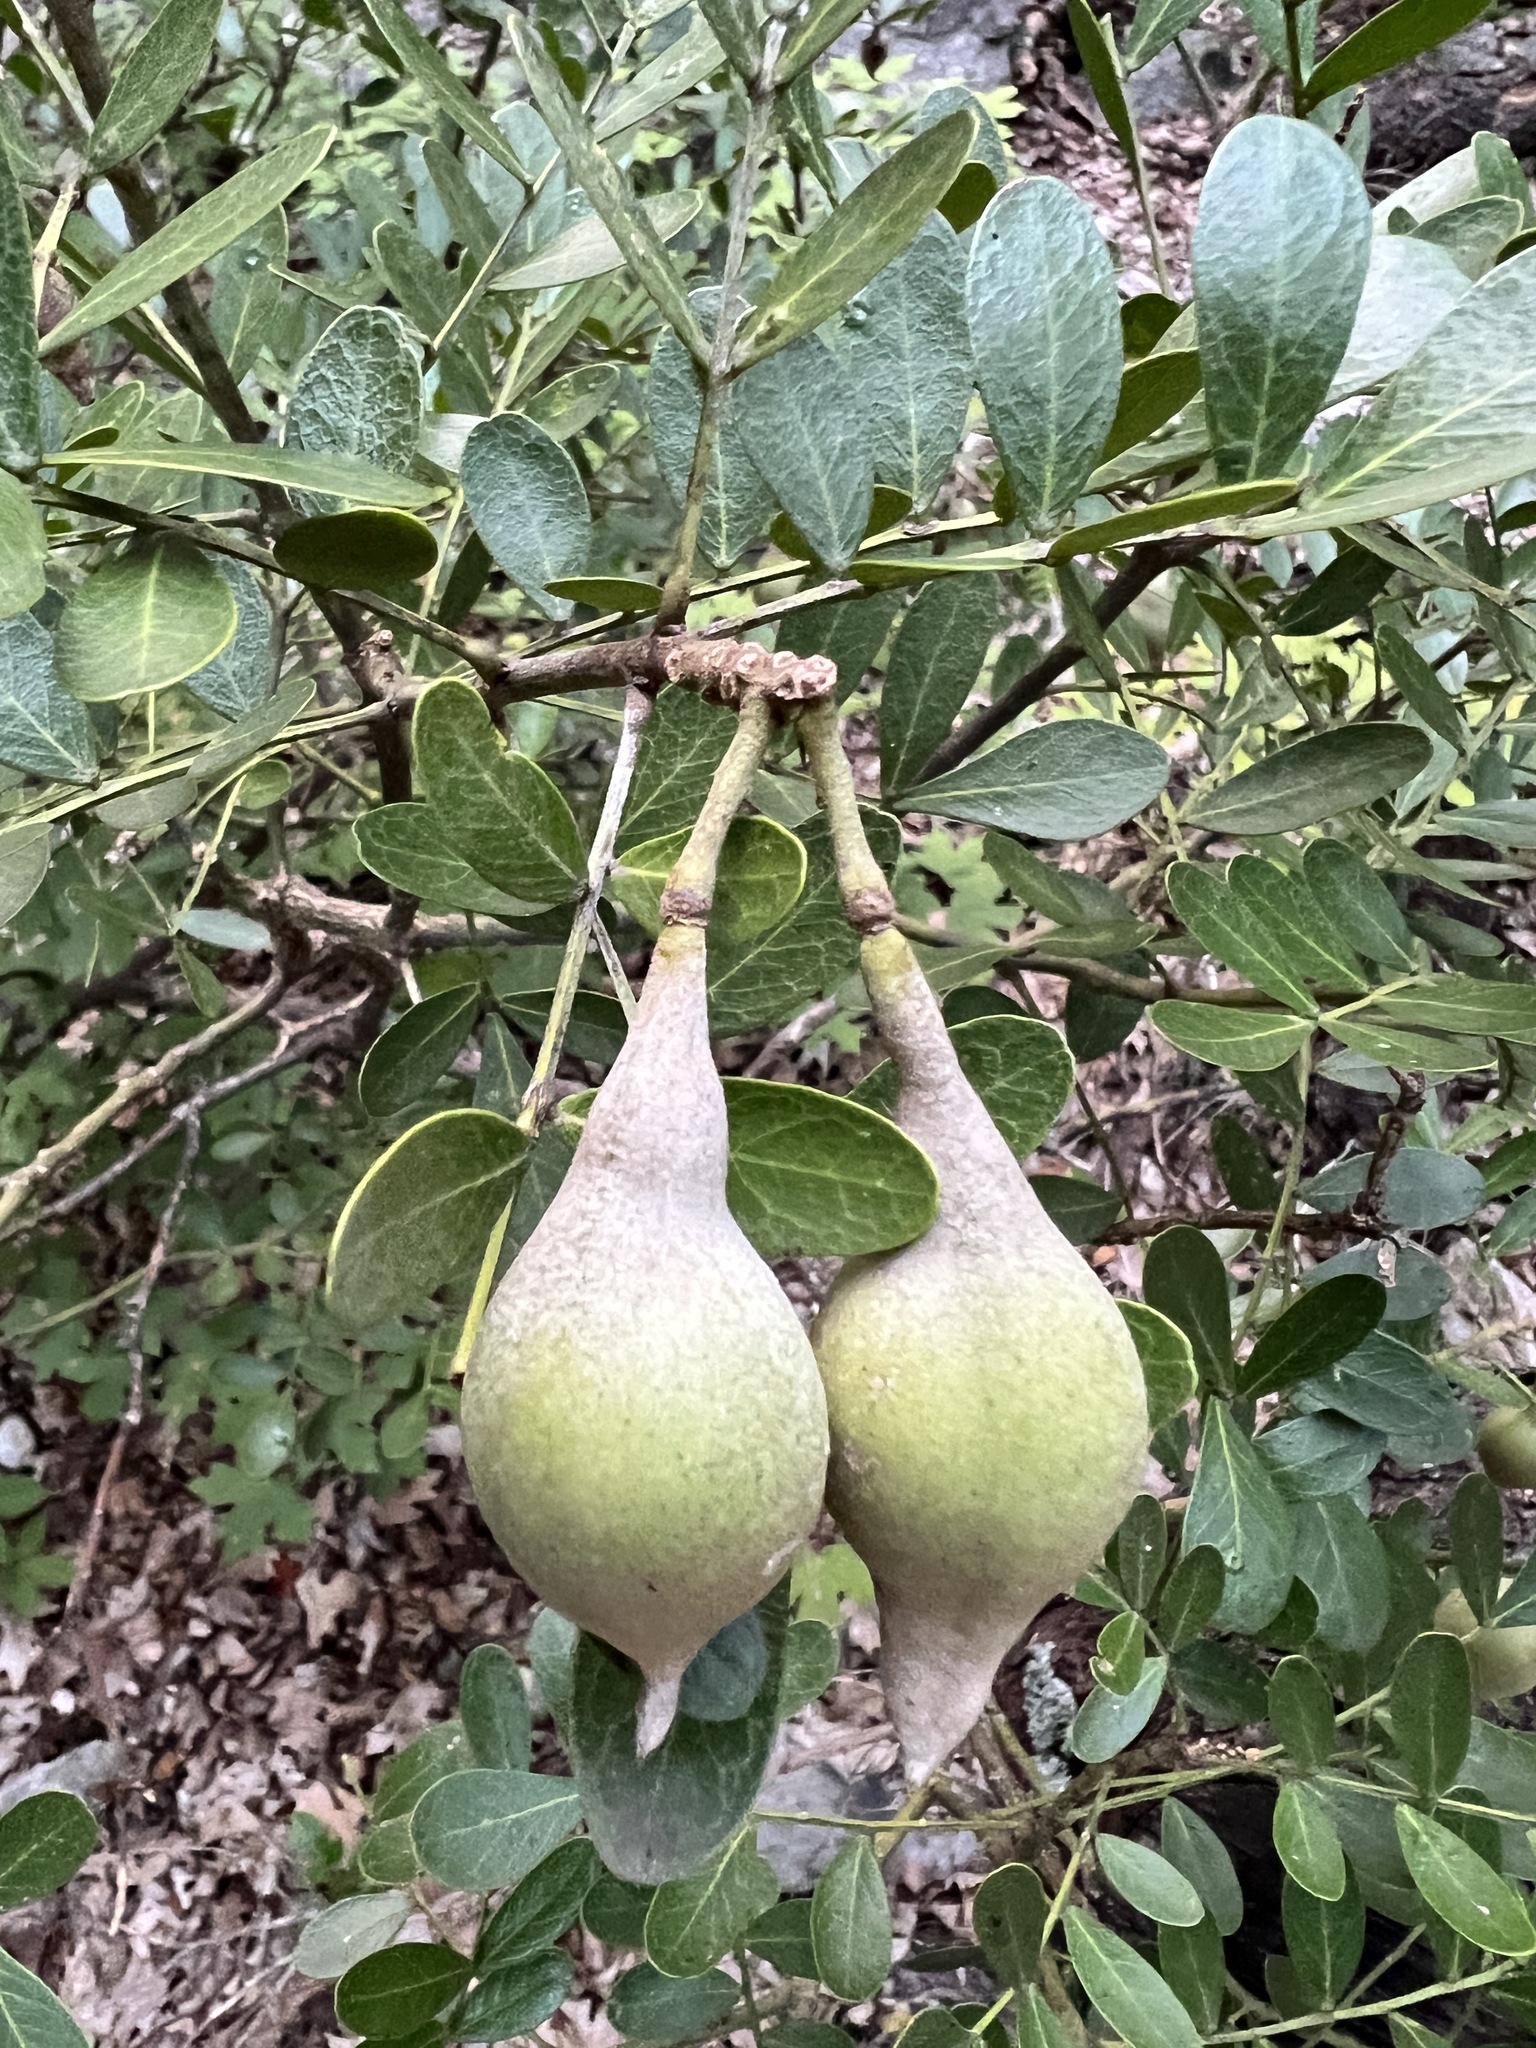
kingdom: Plantae
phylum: Tracheophyta
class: Magnoliopsida
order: Fabales
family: Fabaceae
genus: Dermatophyllum
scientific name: Dermatophyllum secundiflorum
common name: Texas-mountain-laurel
